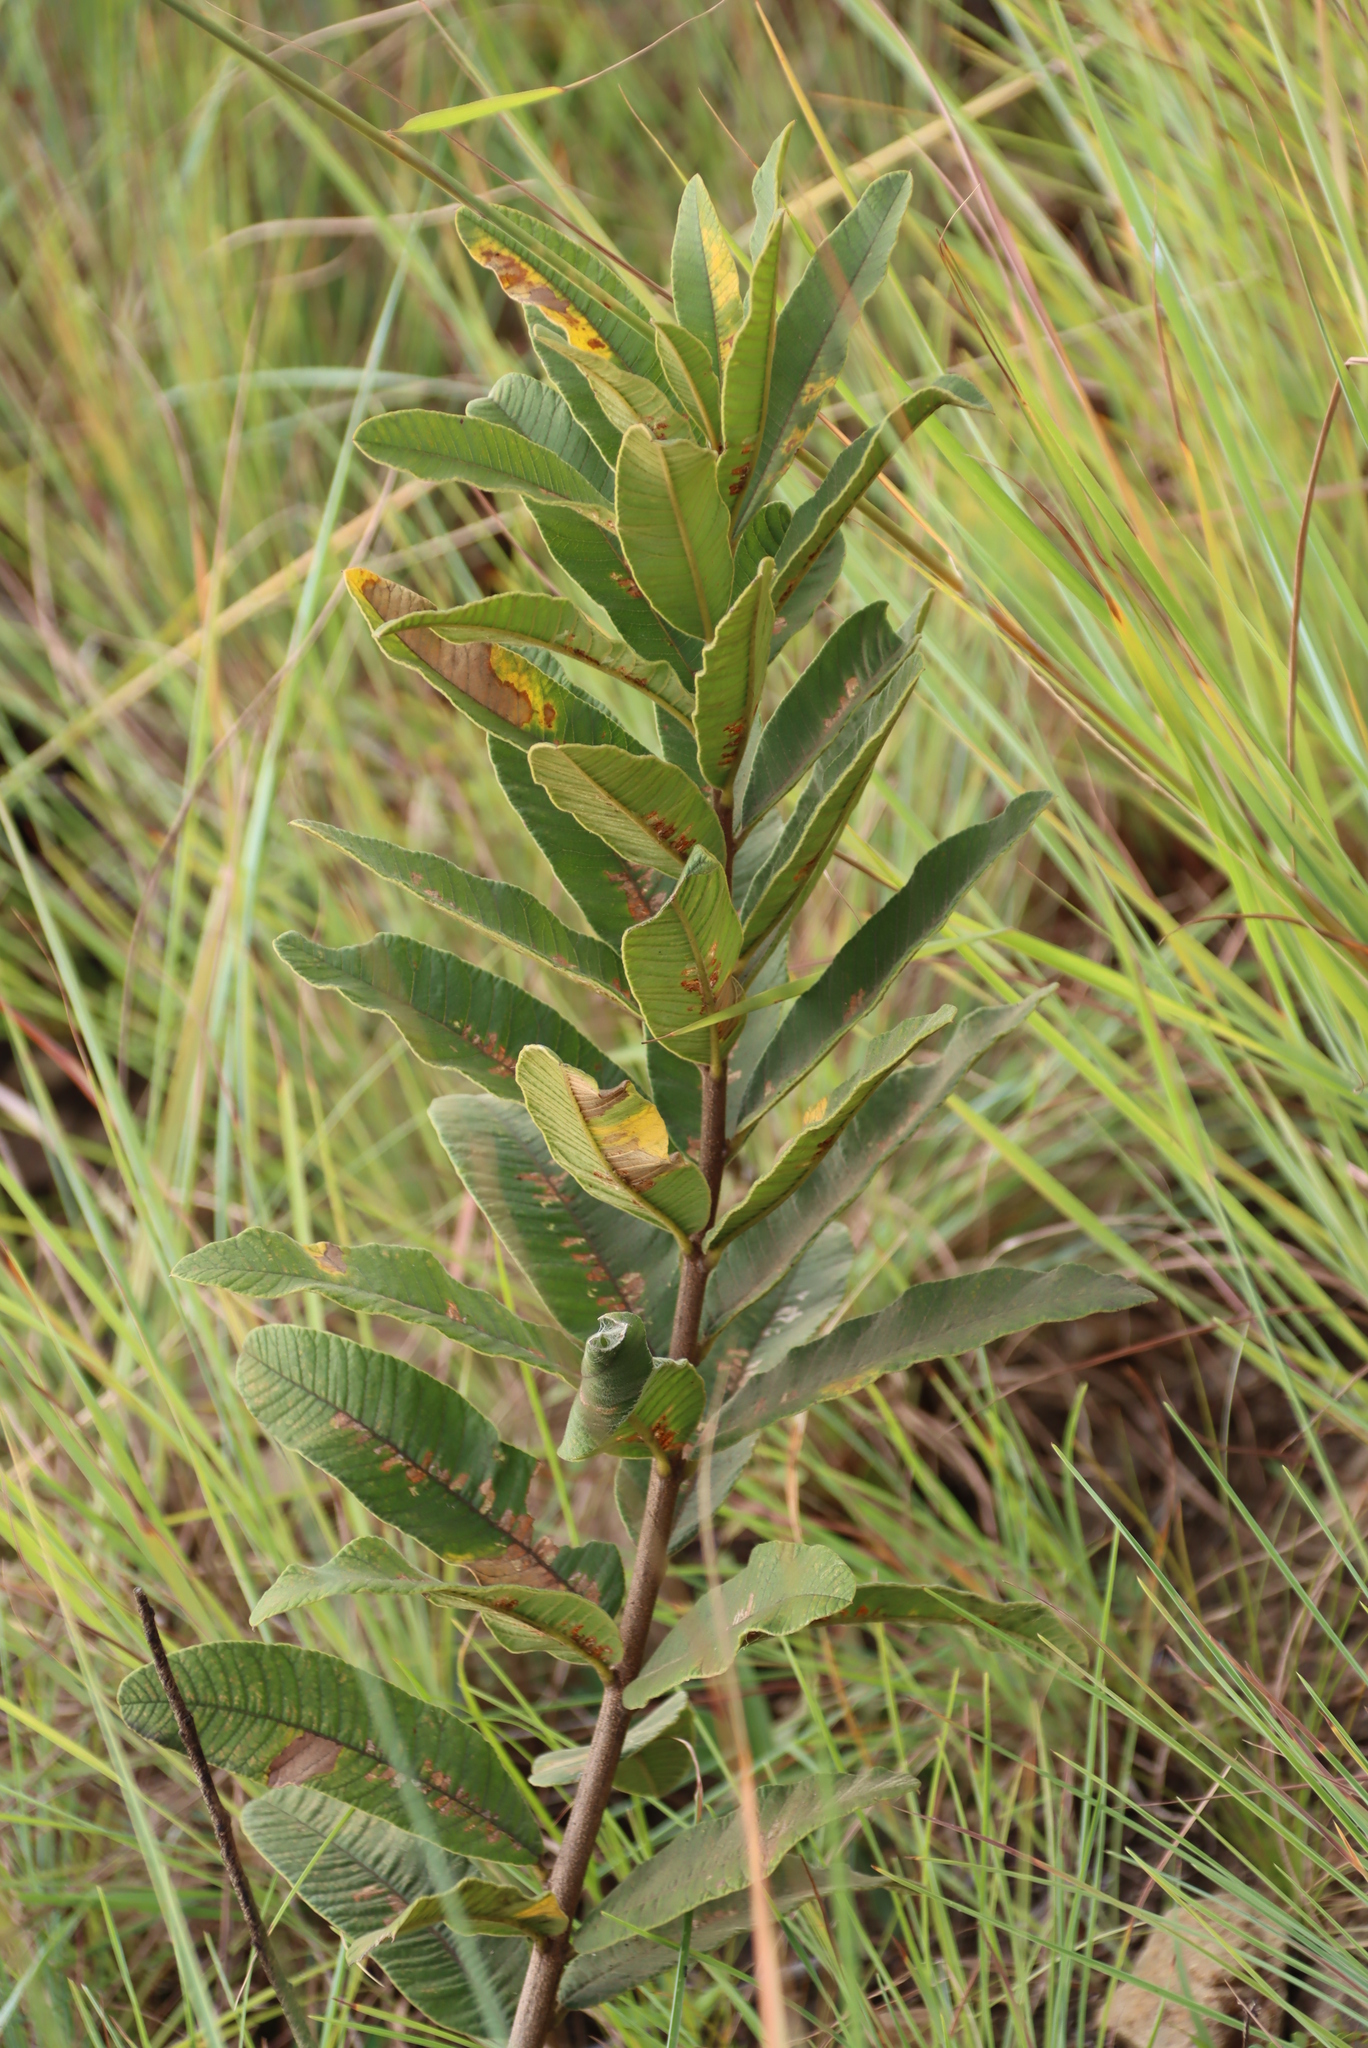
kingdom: Plantae
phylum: Tracheophyta
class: Magnoliopsida
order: Sapindales
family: Anacardiaceae
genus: Searsia
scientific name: Searsia harveyi
